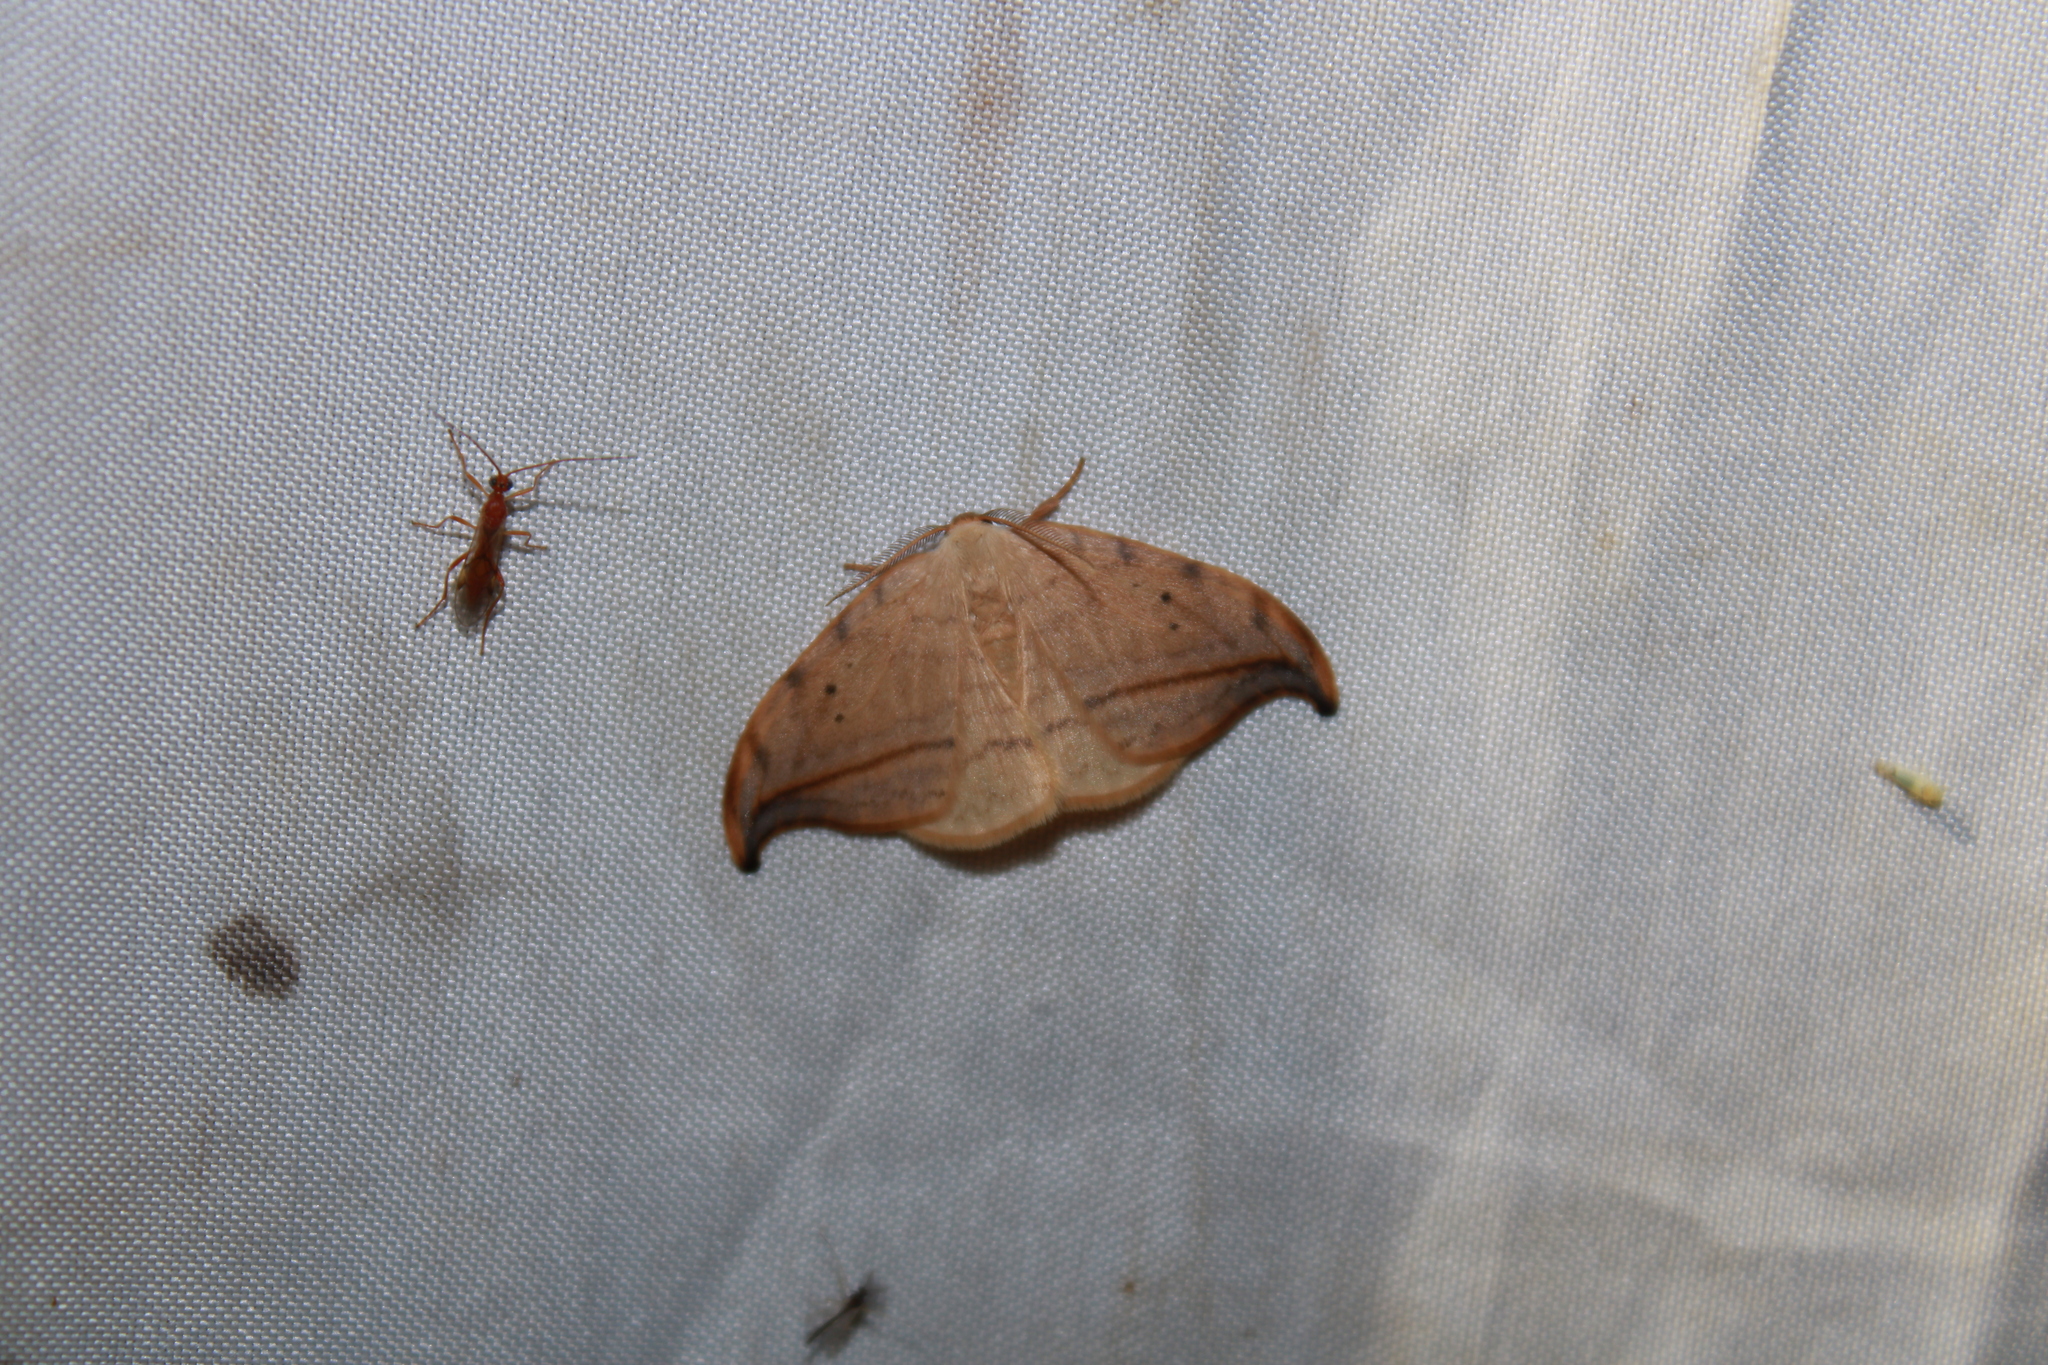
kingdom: Animalia
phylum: Arthropoda
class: Insecta
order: Lepidoptera
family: Drepanidae
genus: Drepana
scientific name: Drepana arcuata
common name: Arched hooktip moth
